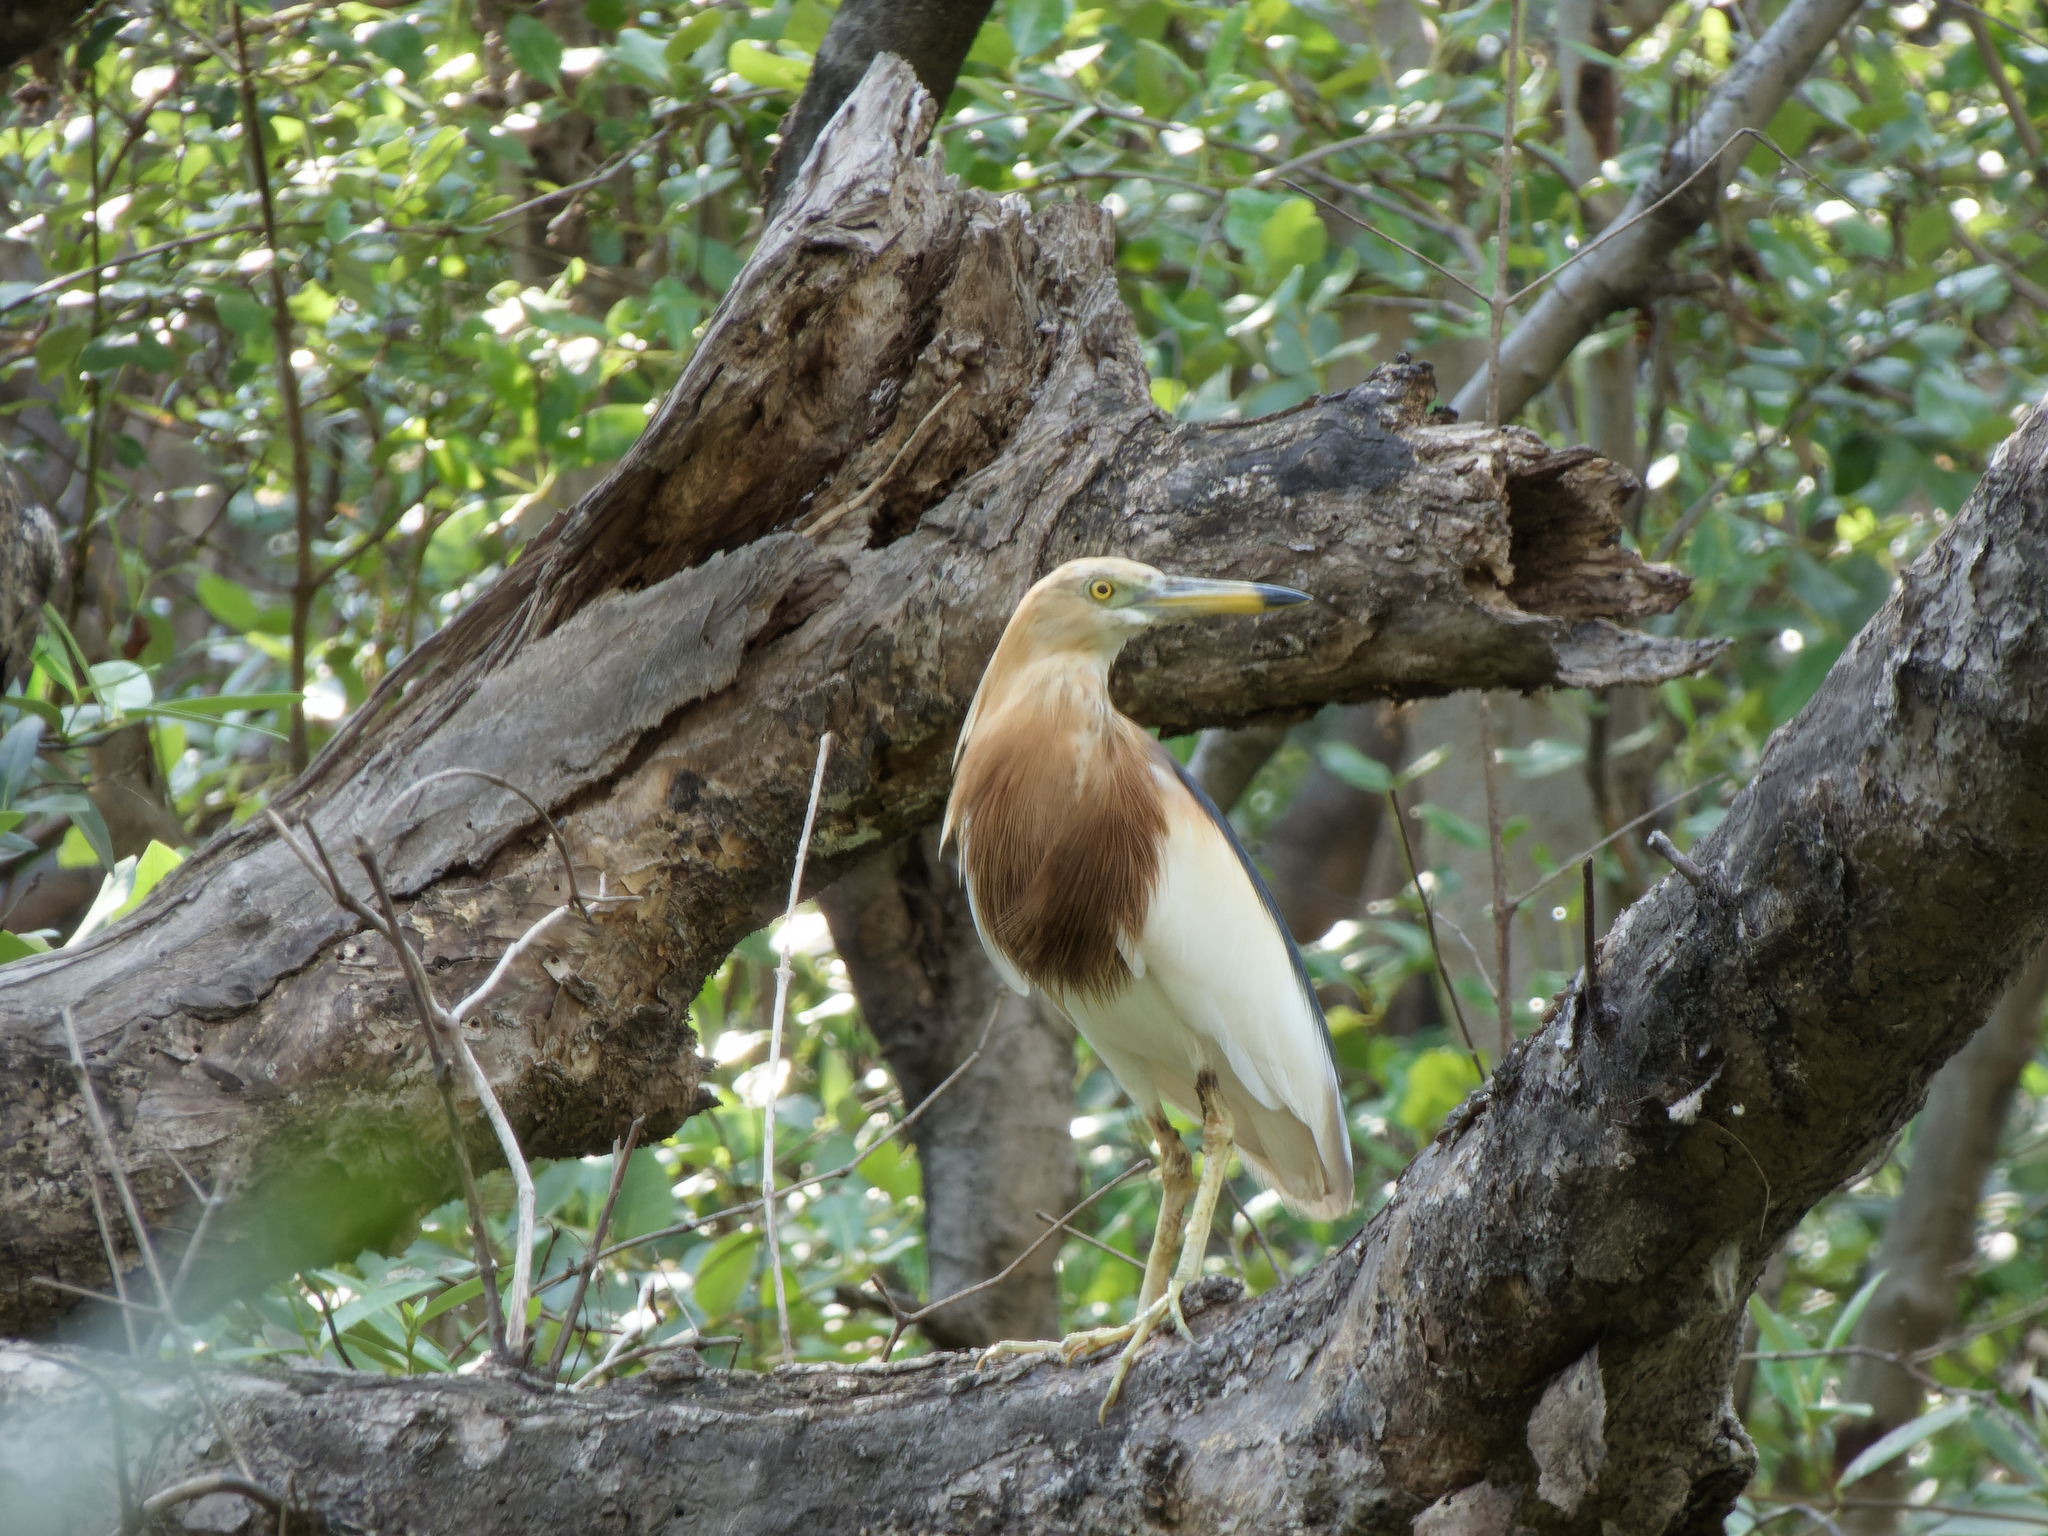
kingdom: Animalia
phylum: Chordata
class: Aves
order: Pelecaniformes
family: Ardeidae
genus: Ardeola
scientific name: Ardeola speciosa
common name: Javan pond heron
